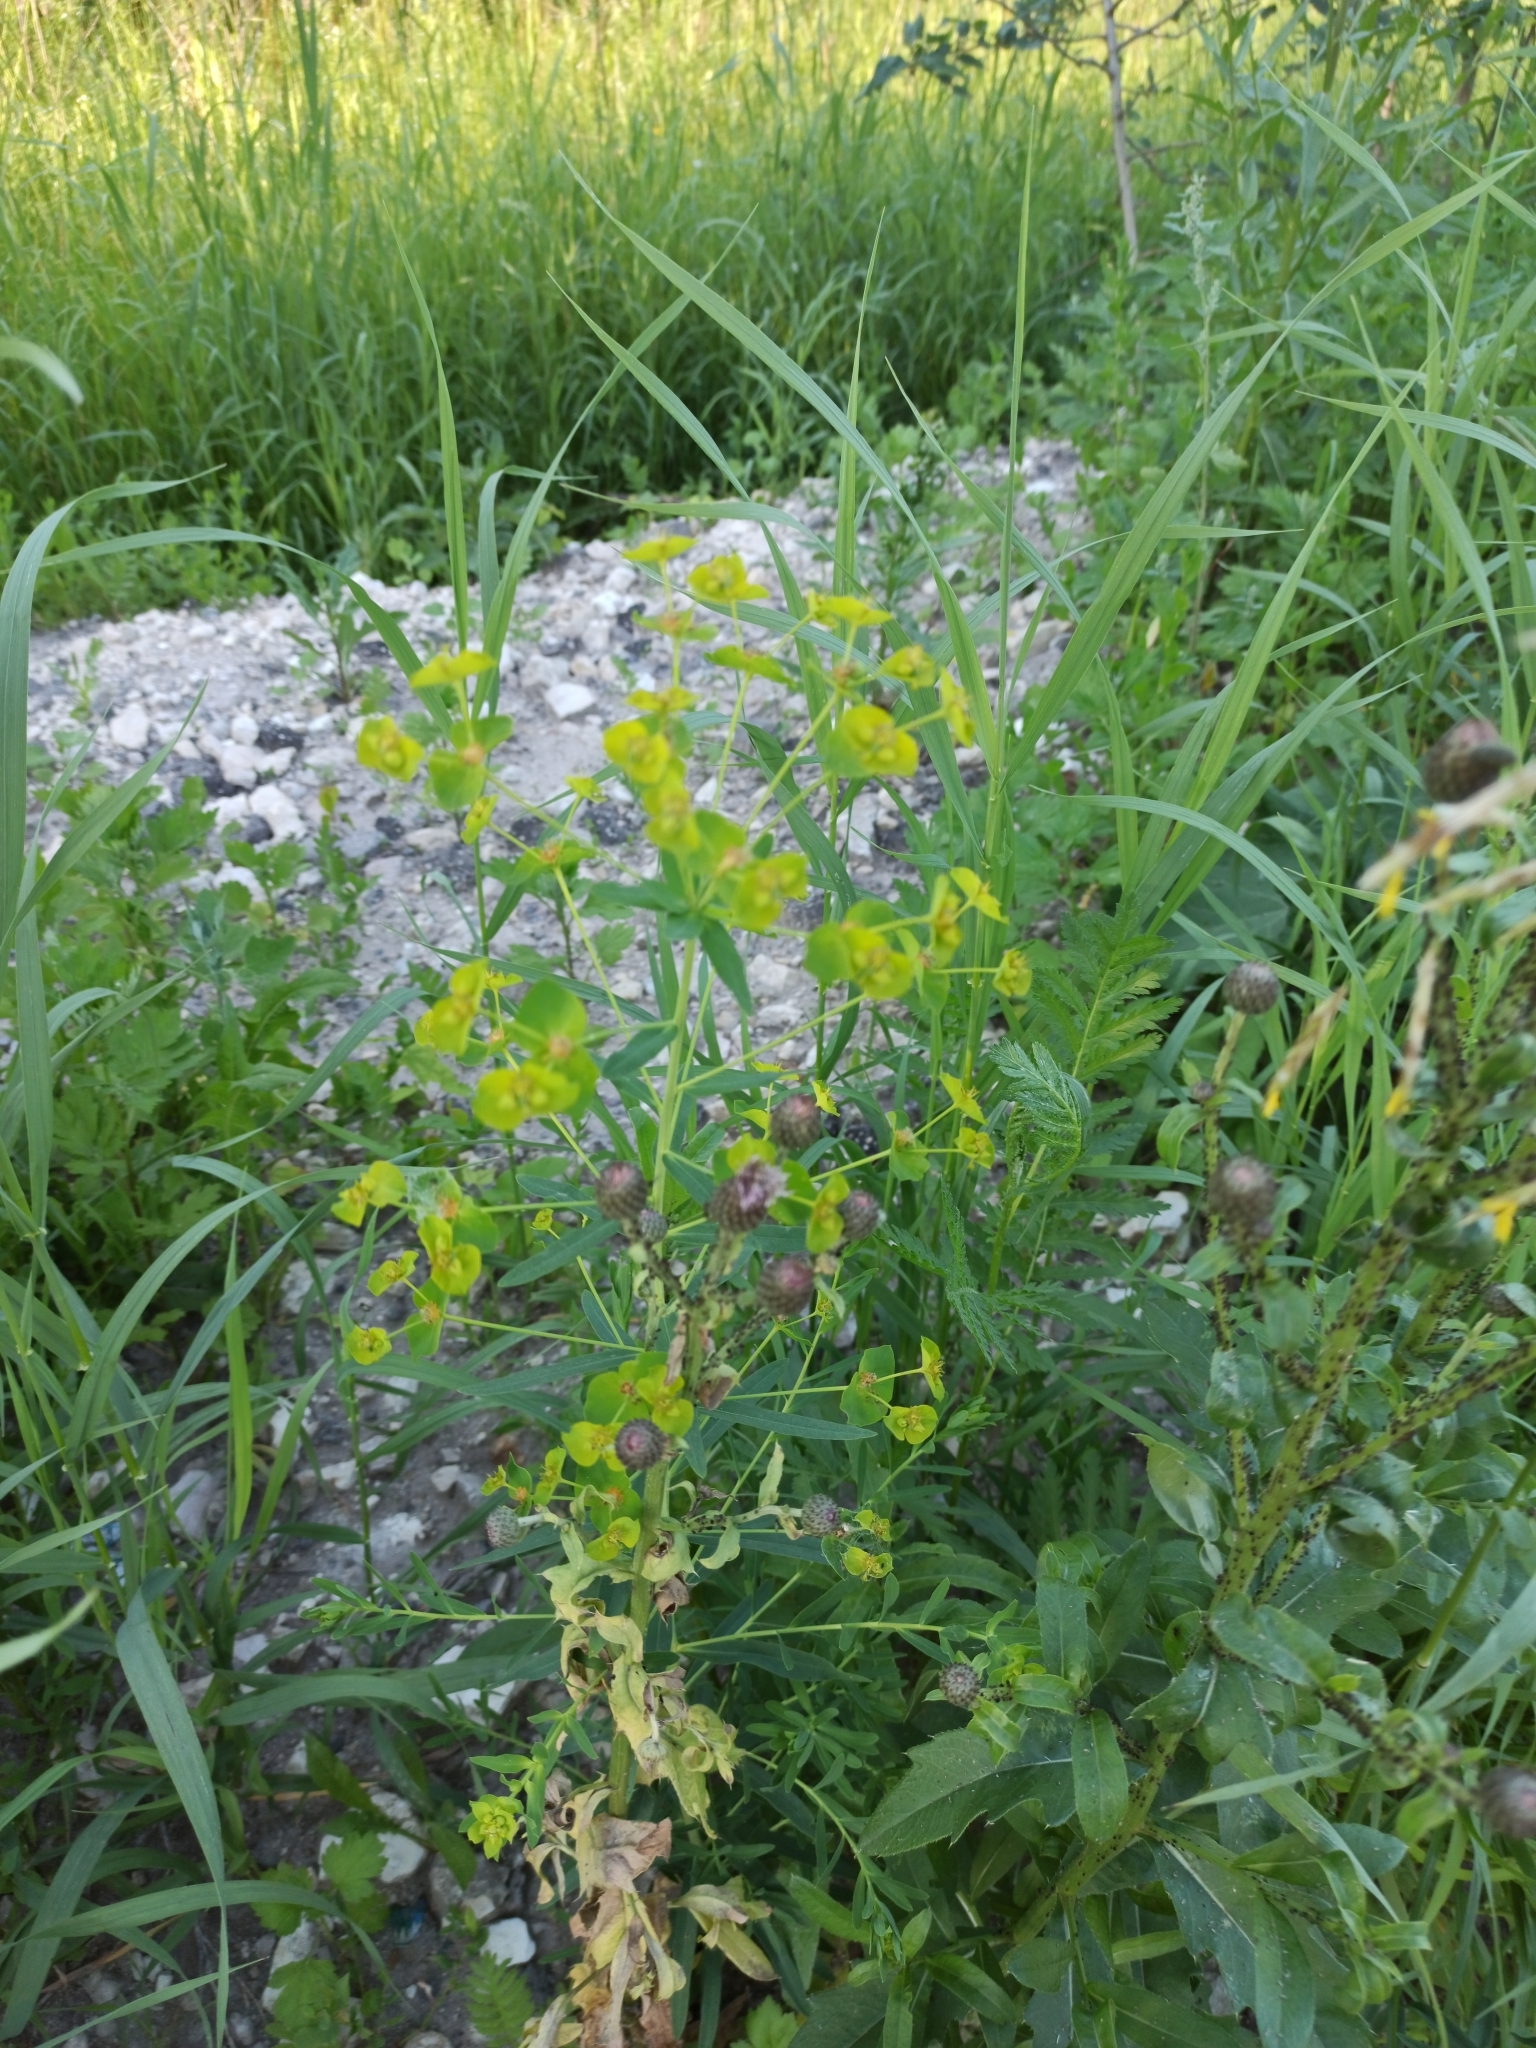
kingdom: Plantae
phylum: Tracheophyta
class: Magnoliopsida
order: Malpighiales
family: Euphorbiaceae
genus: Euphorbia
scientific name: Euphorbia virgata
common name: Leafy spurge
